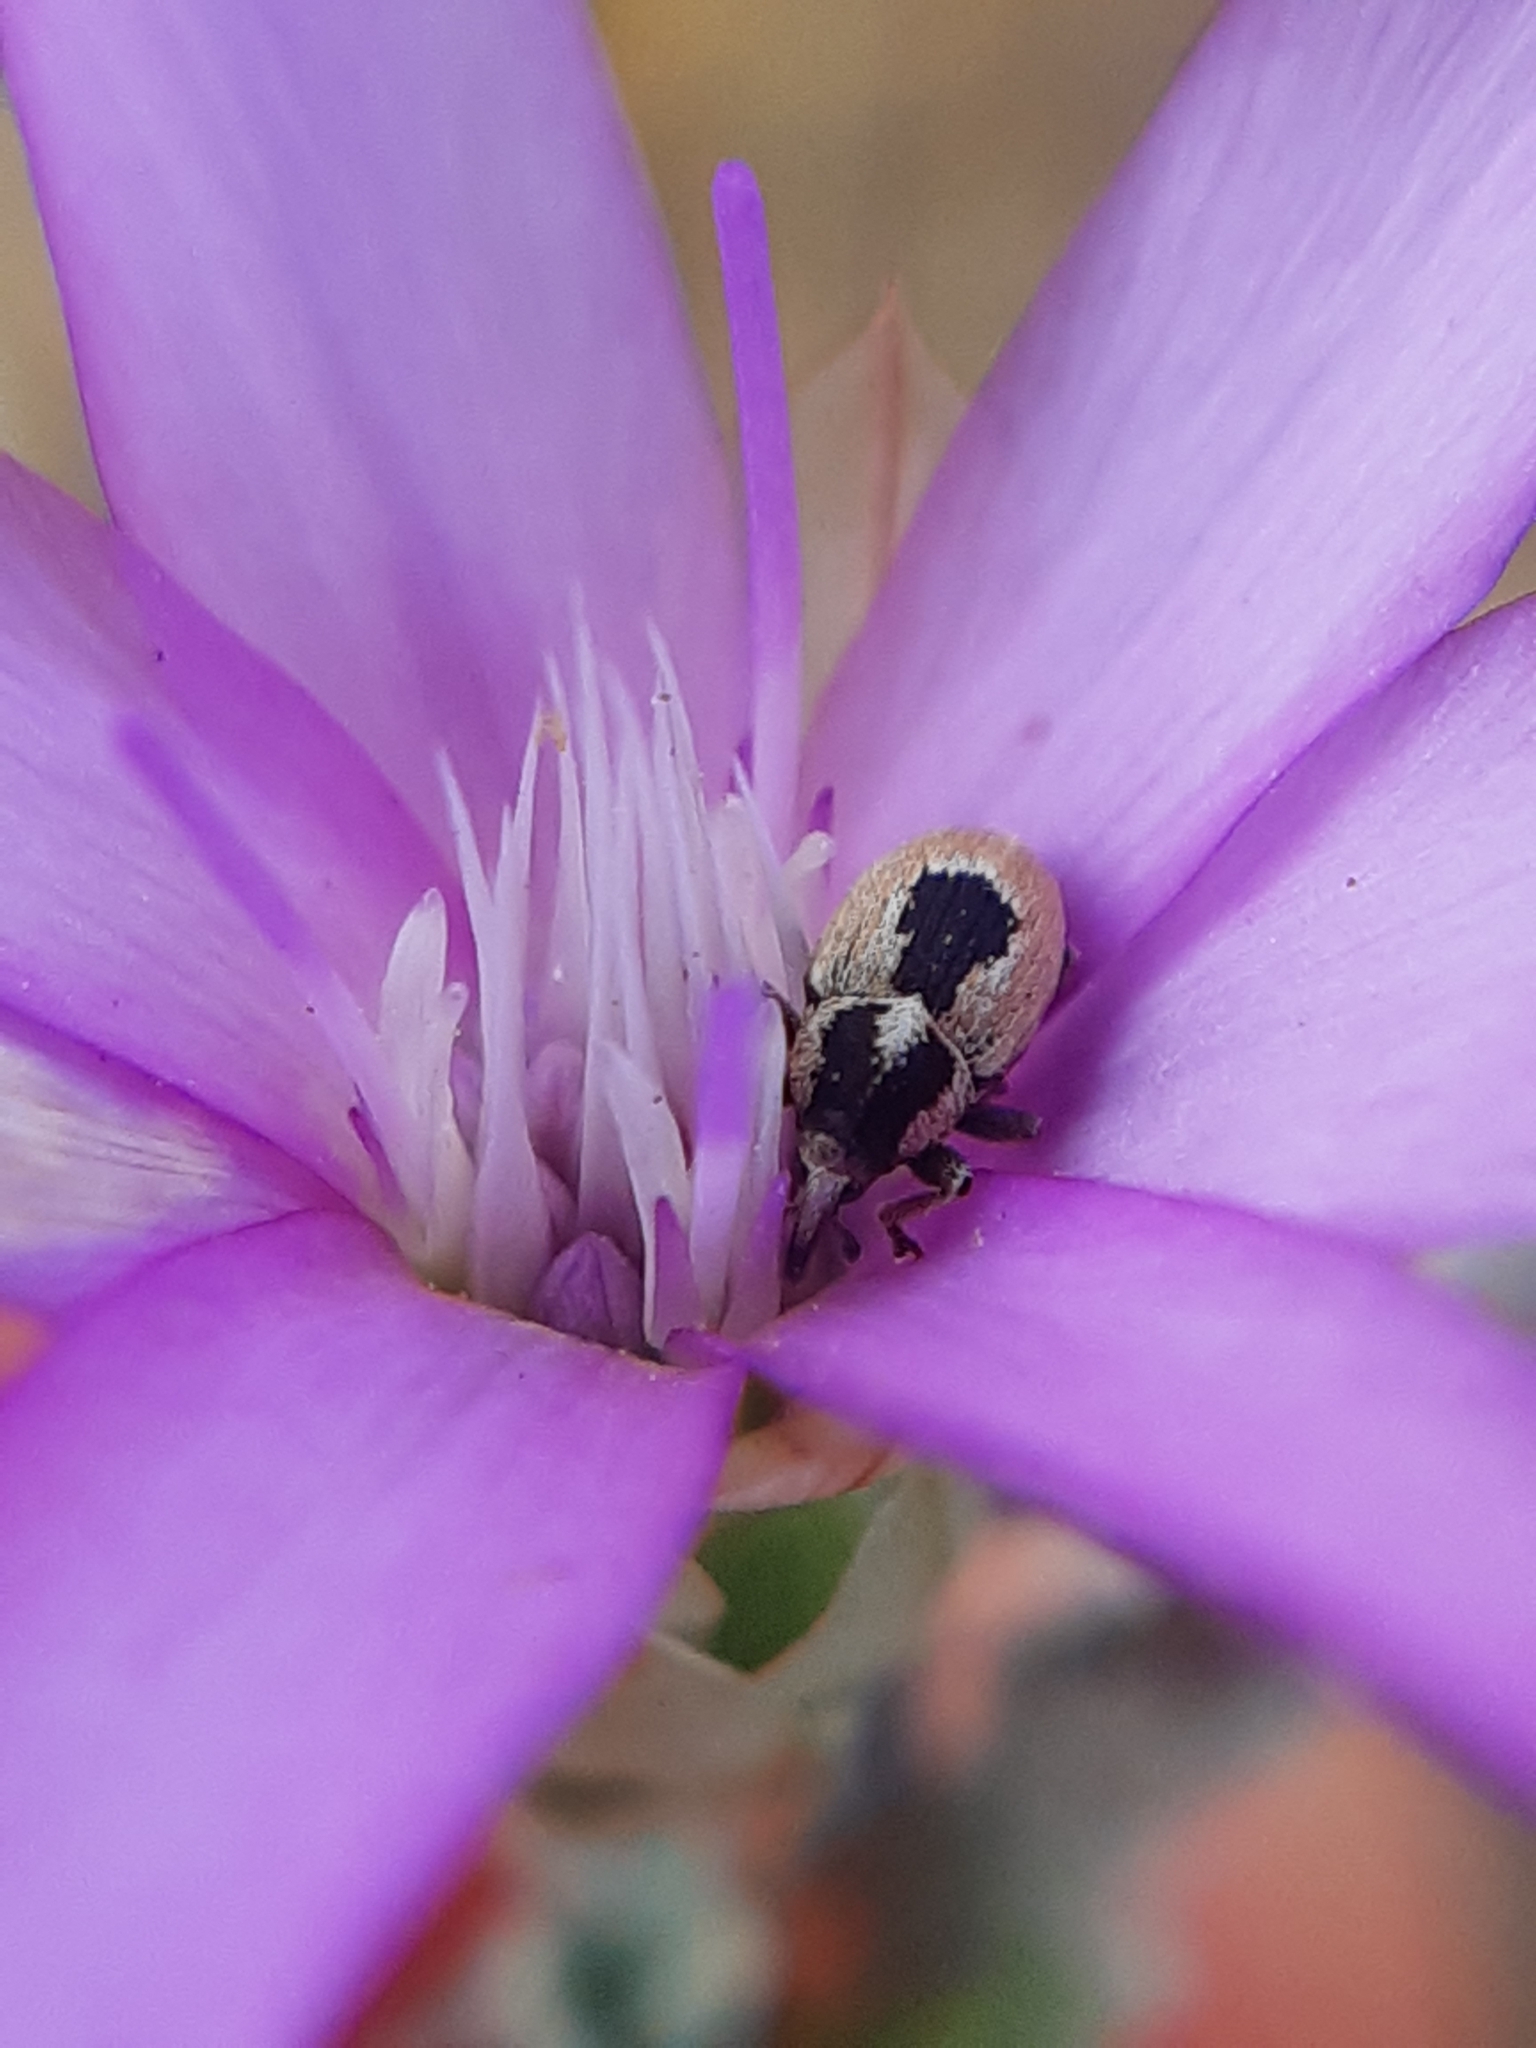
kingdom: Animalia
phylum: Arthropoda
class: Insecta
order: Coleoptera
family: Curculionidae
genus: Sibinia
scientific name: Sibinia phalerata
